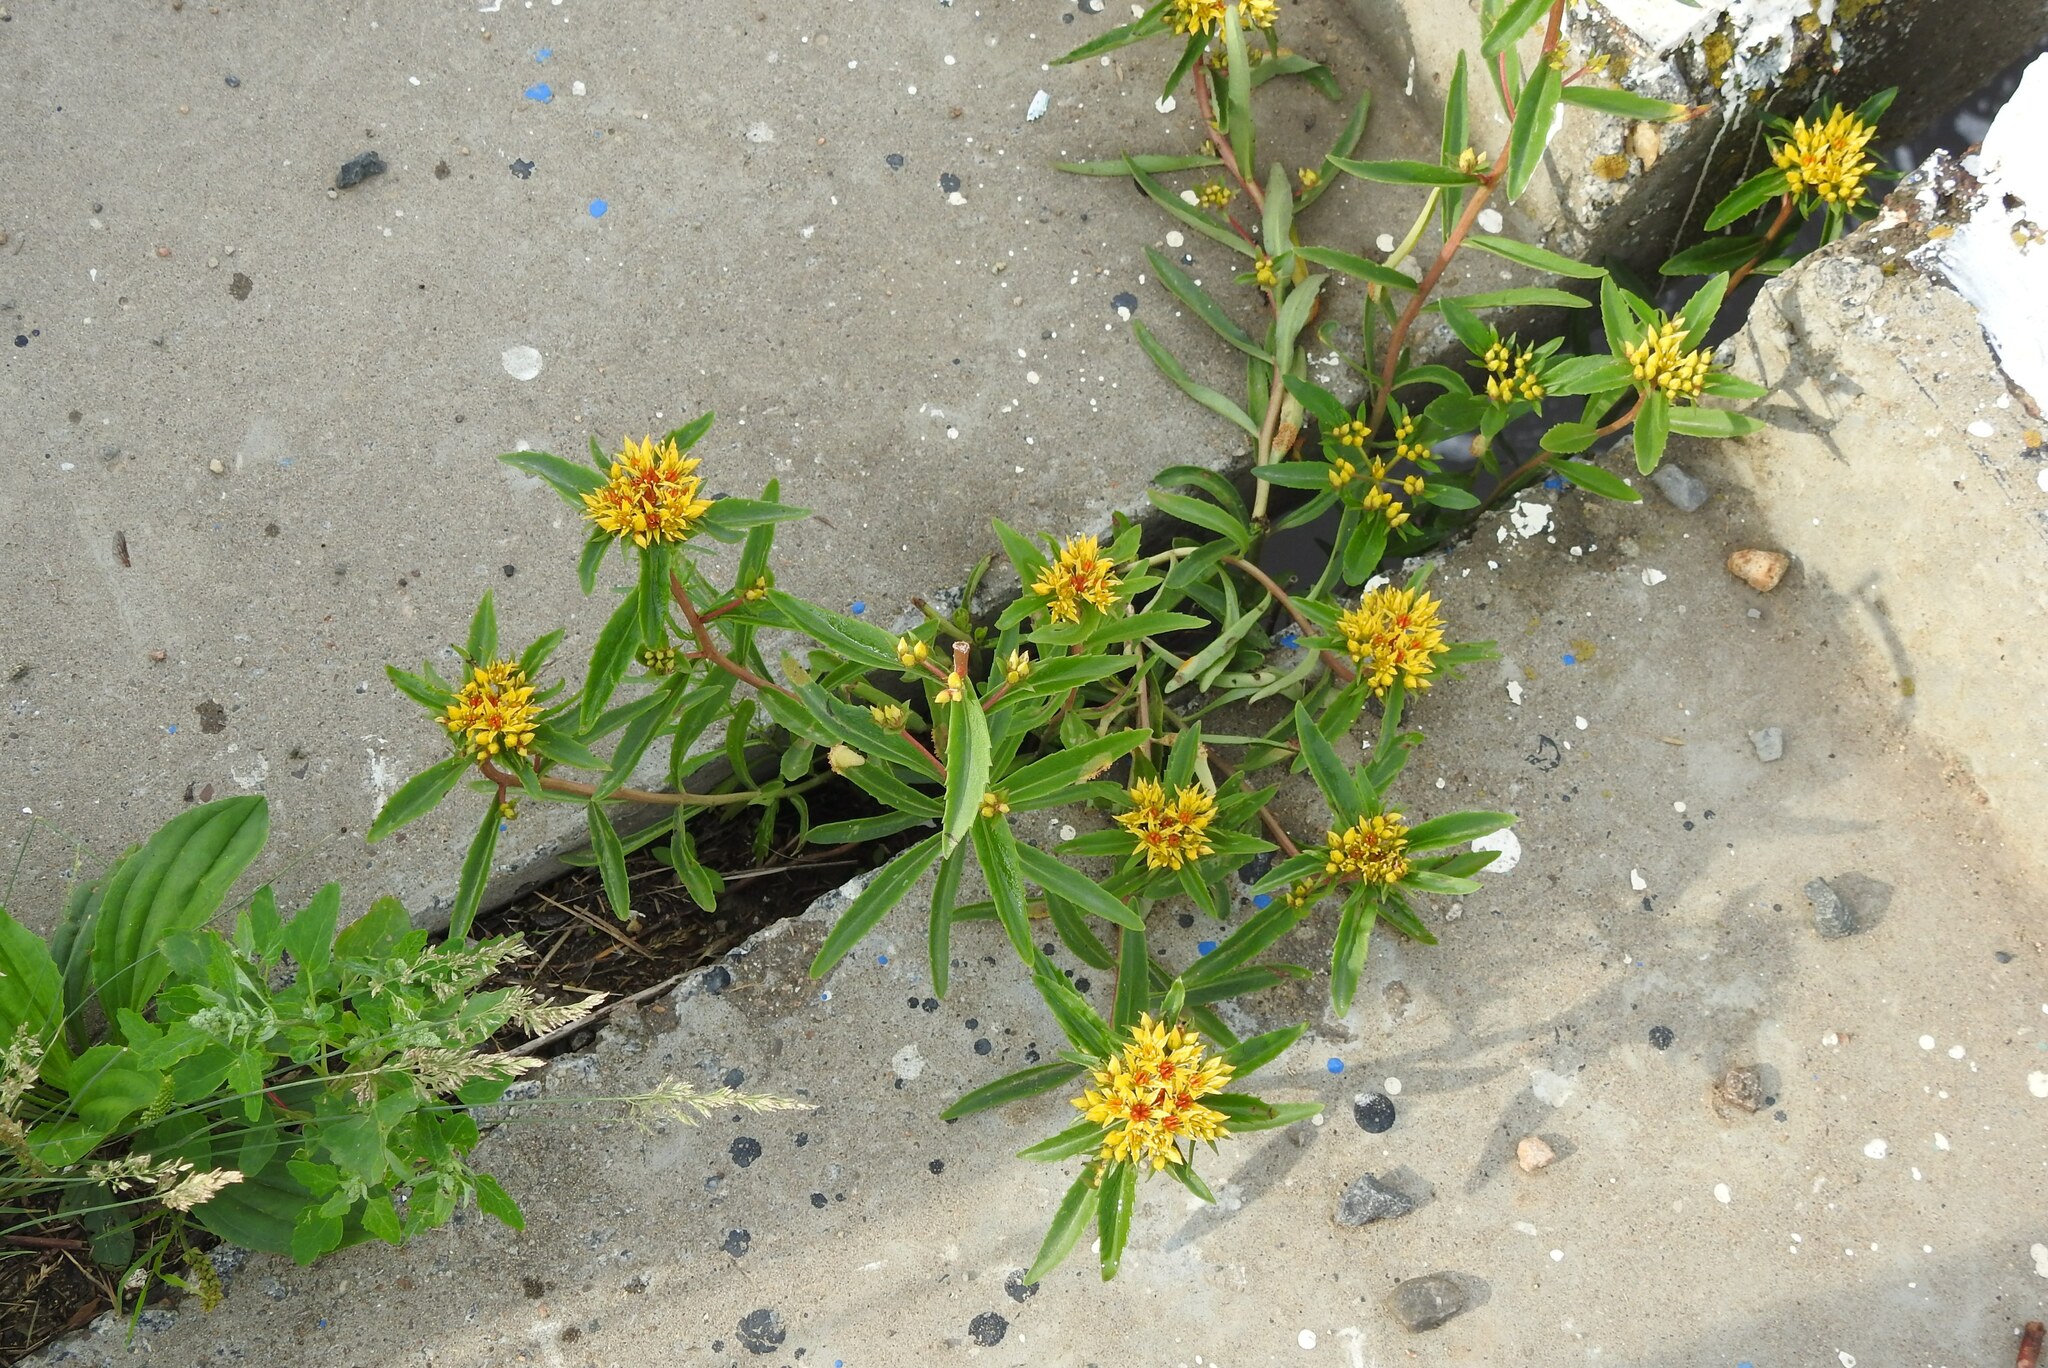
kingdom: Plantae
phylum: Tracheophyta
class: Magnoliopsida
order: Saxifragales
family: Crassulaceae
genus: Phedimus
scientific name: Phedimus aizoon
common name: Orpin aizoon
